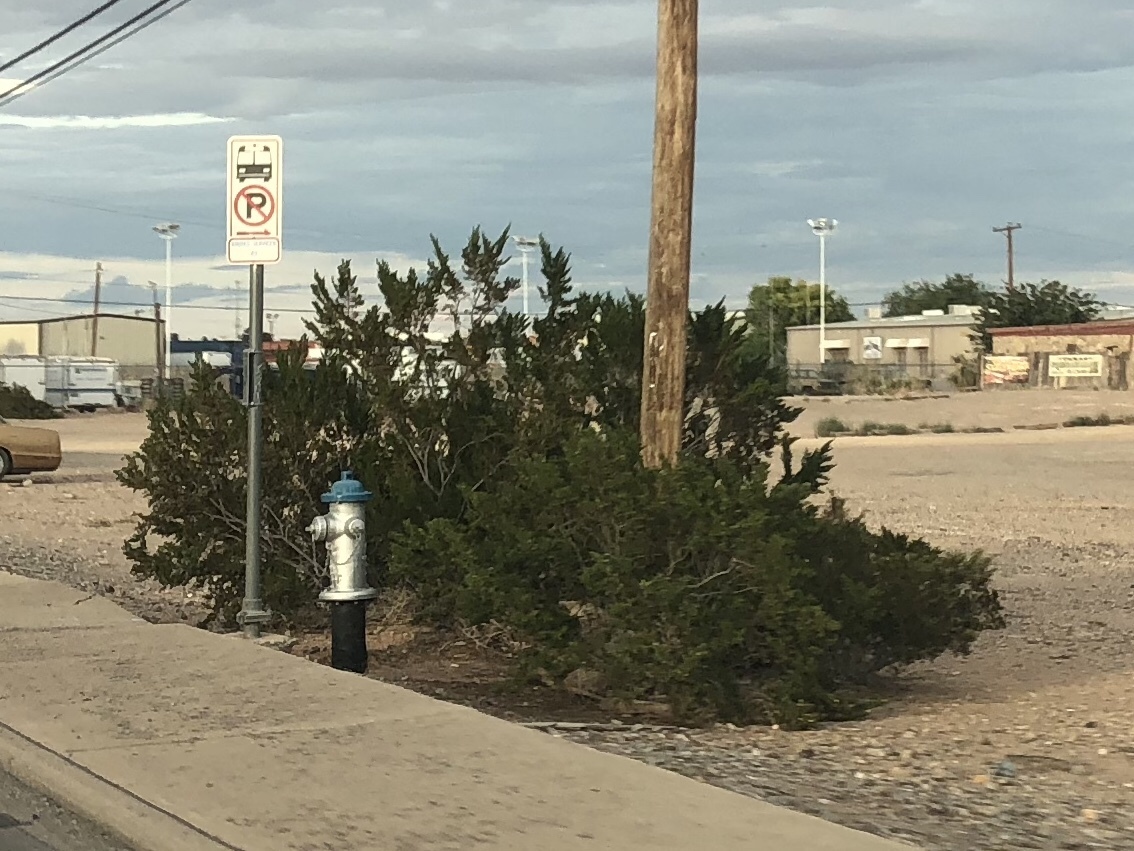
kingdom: Plantae
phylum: Tracheophyta
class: Magnoliopsida
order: Zygophyllales
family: Zygophyllaceae
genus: Larrea
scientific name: Larrea tridentata
